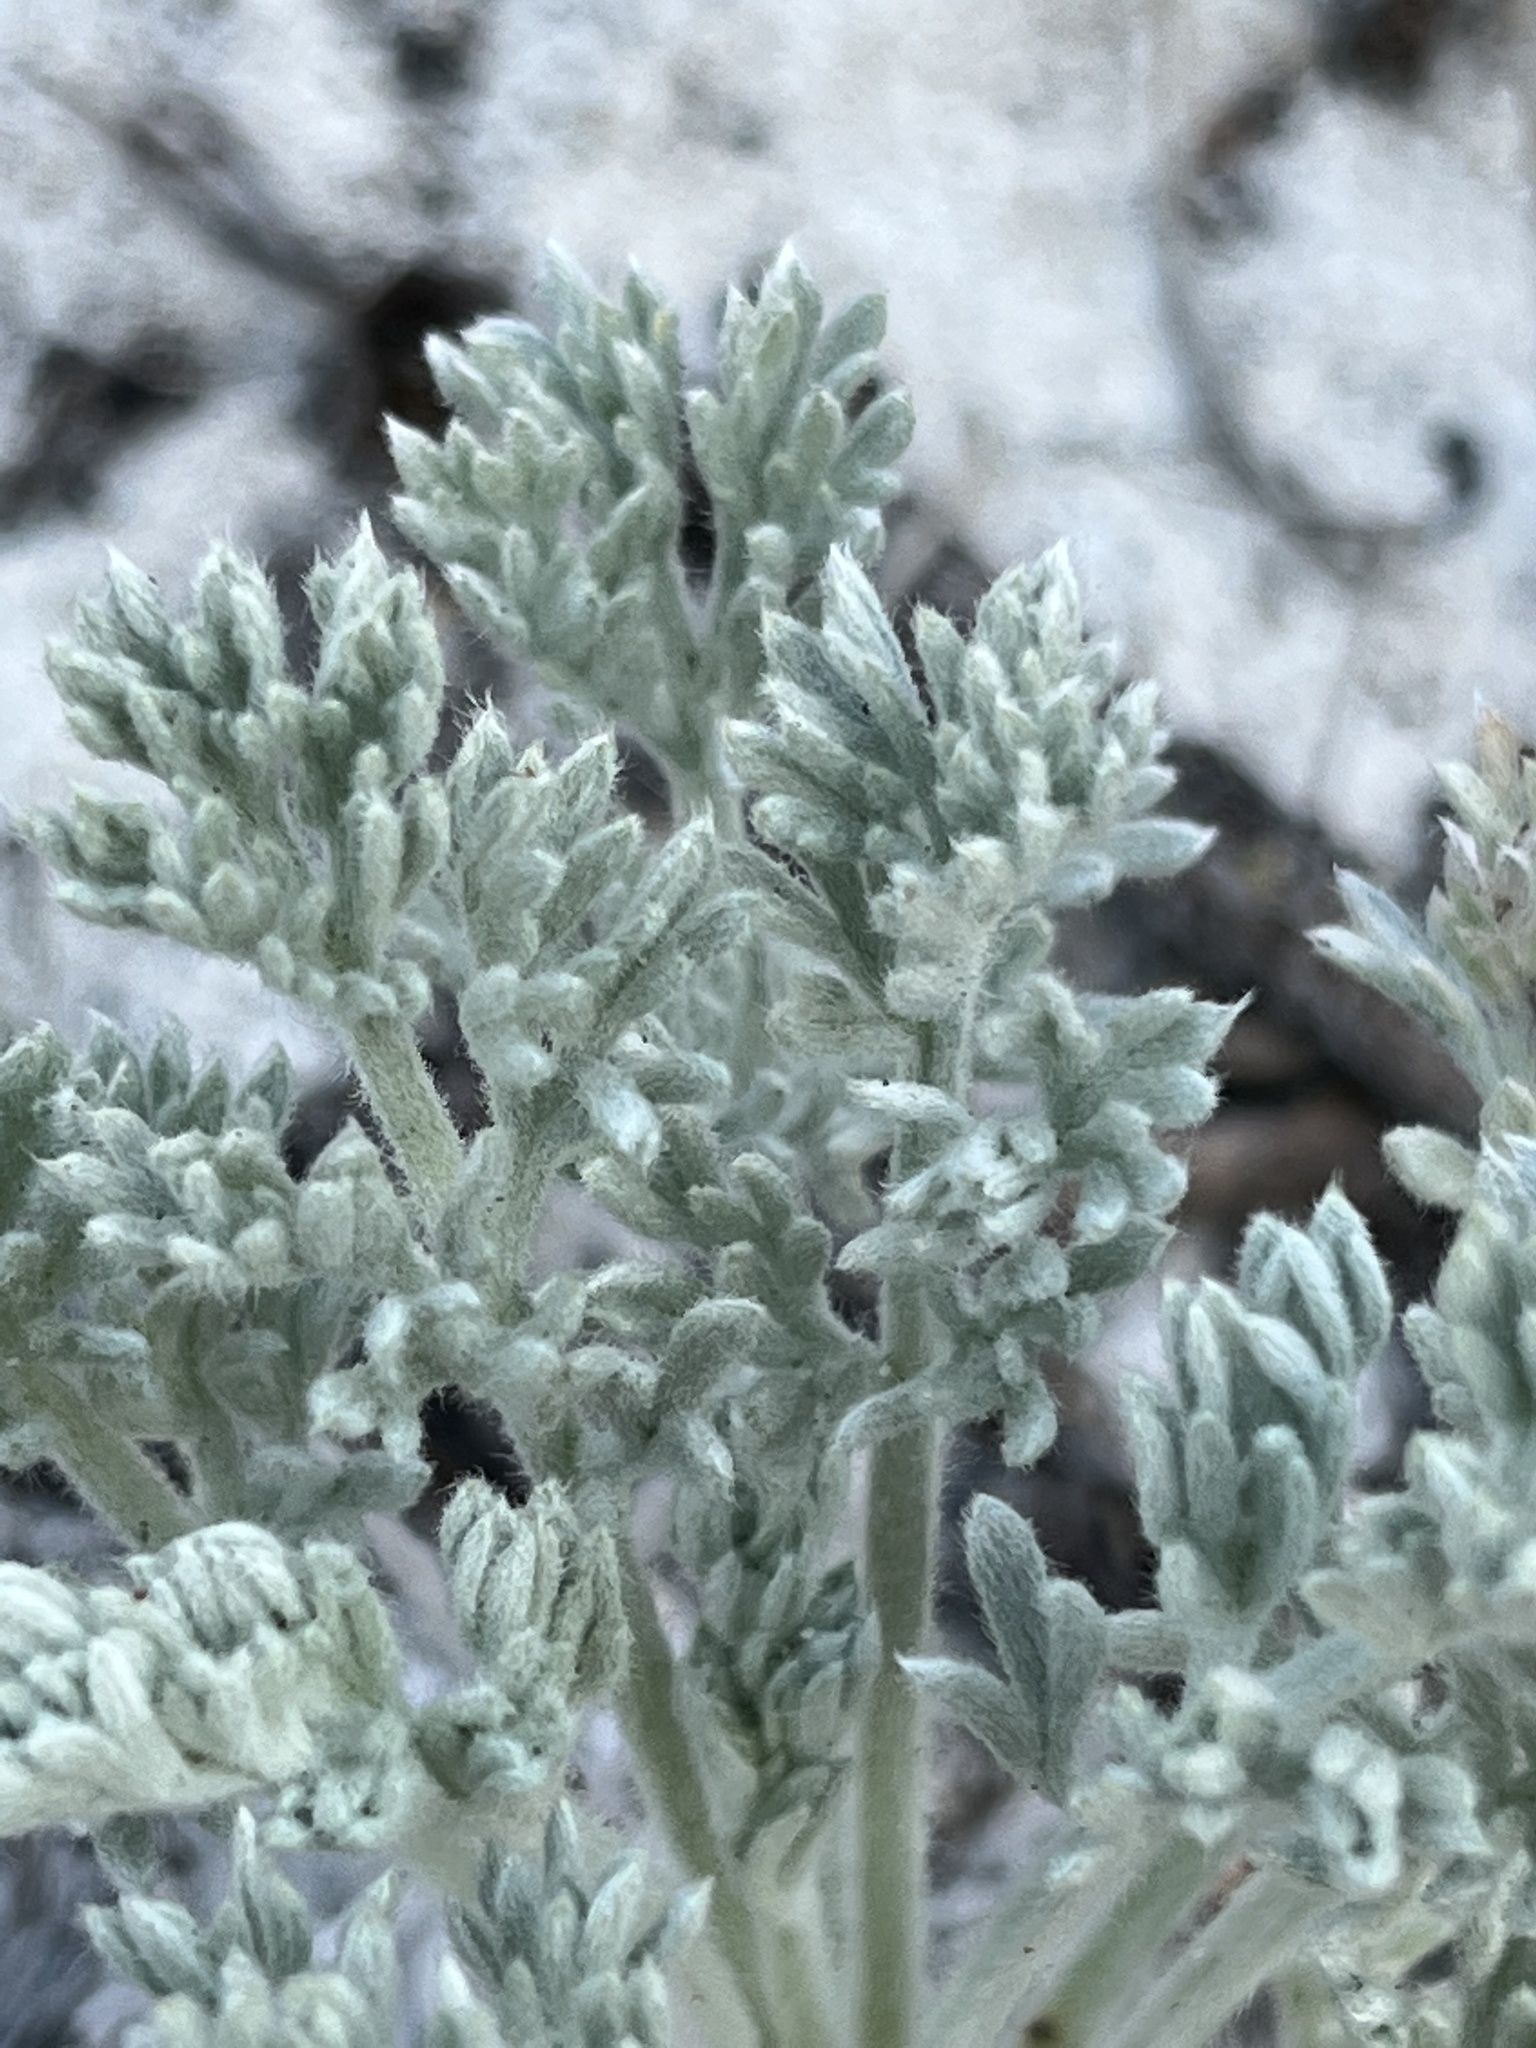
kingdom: Plantae
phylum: Tracheophyta
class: Magnoliopsida
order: Asterales
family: Asteraceae
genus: Artemisia
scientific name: Artemisia pycnocephala
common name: Coastal sagewort
